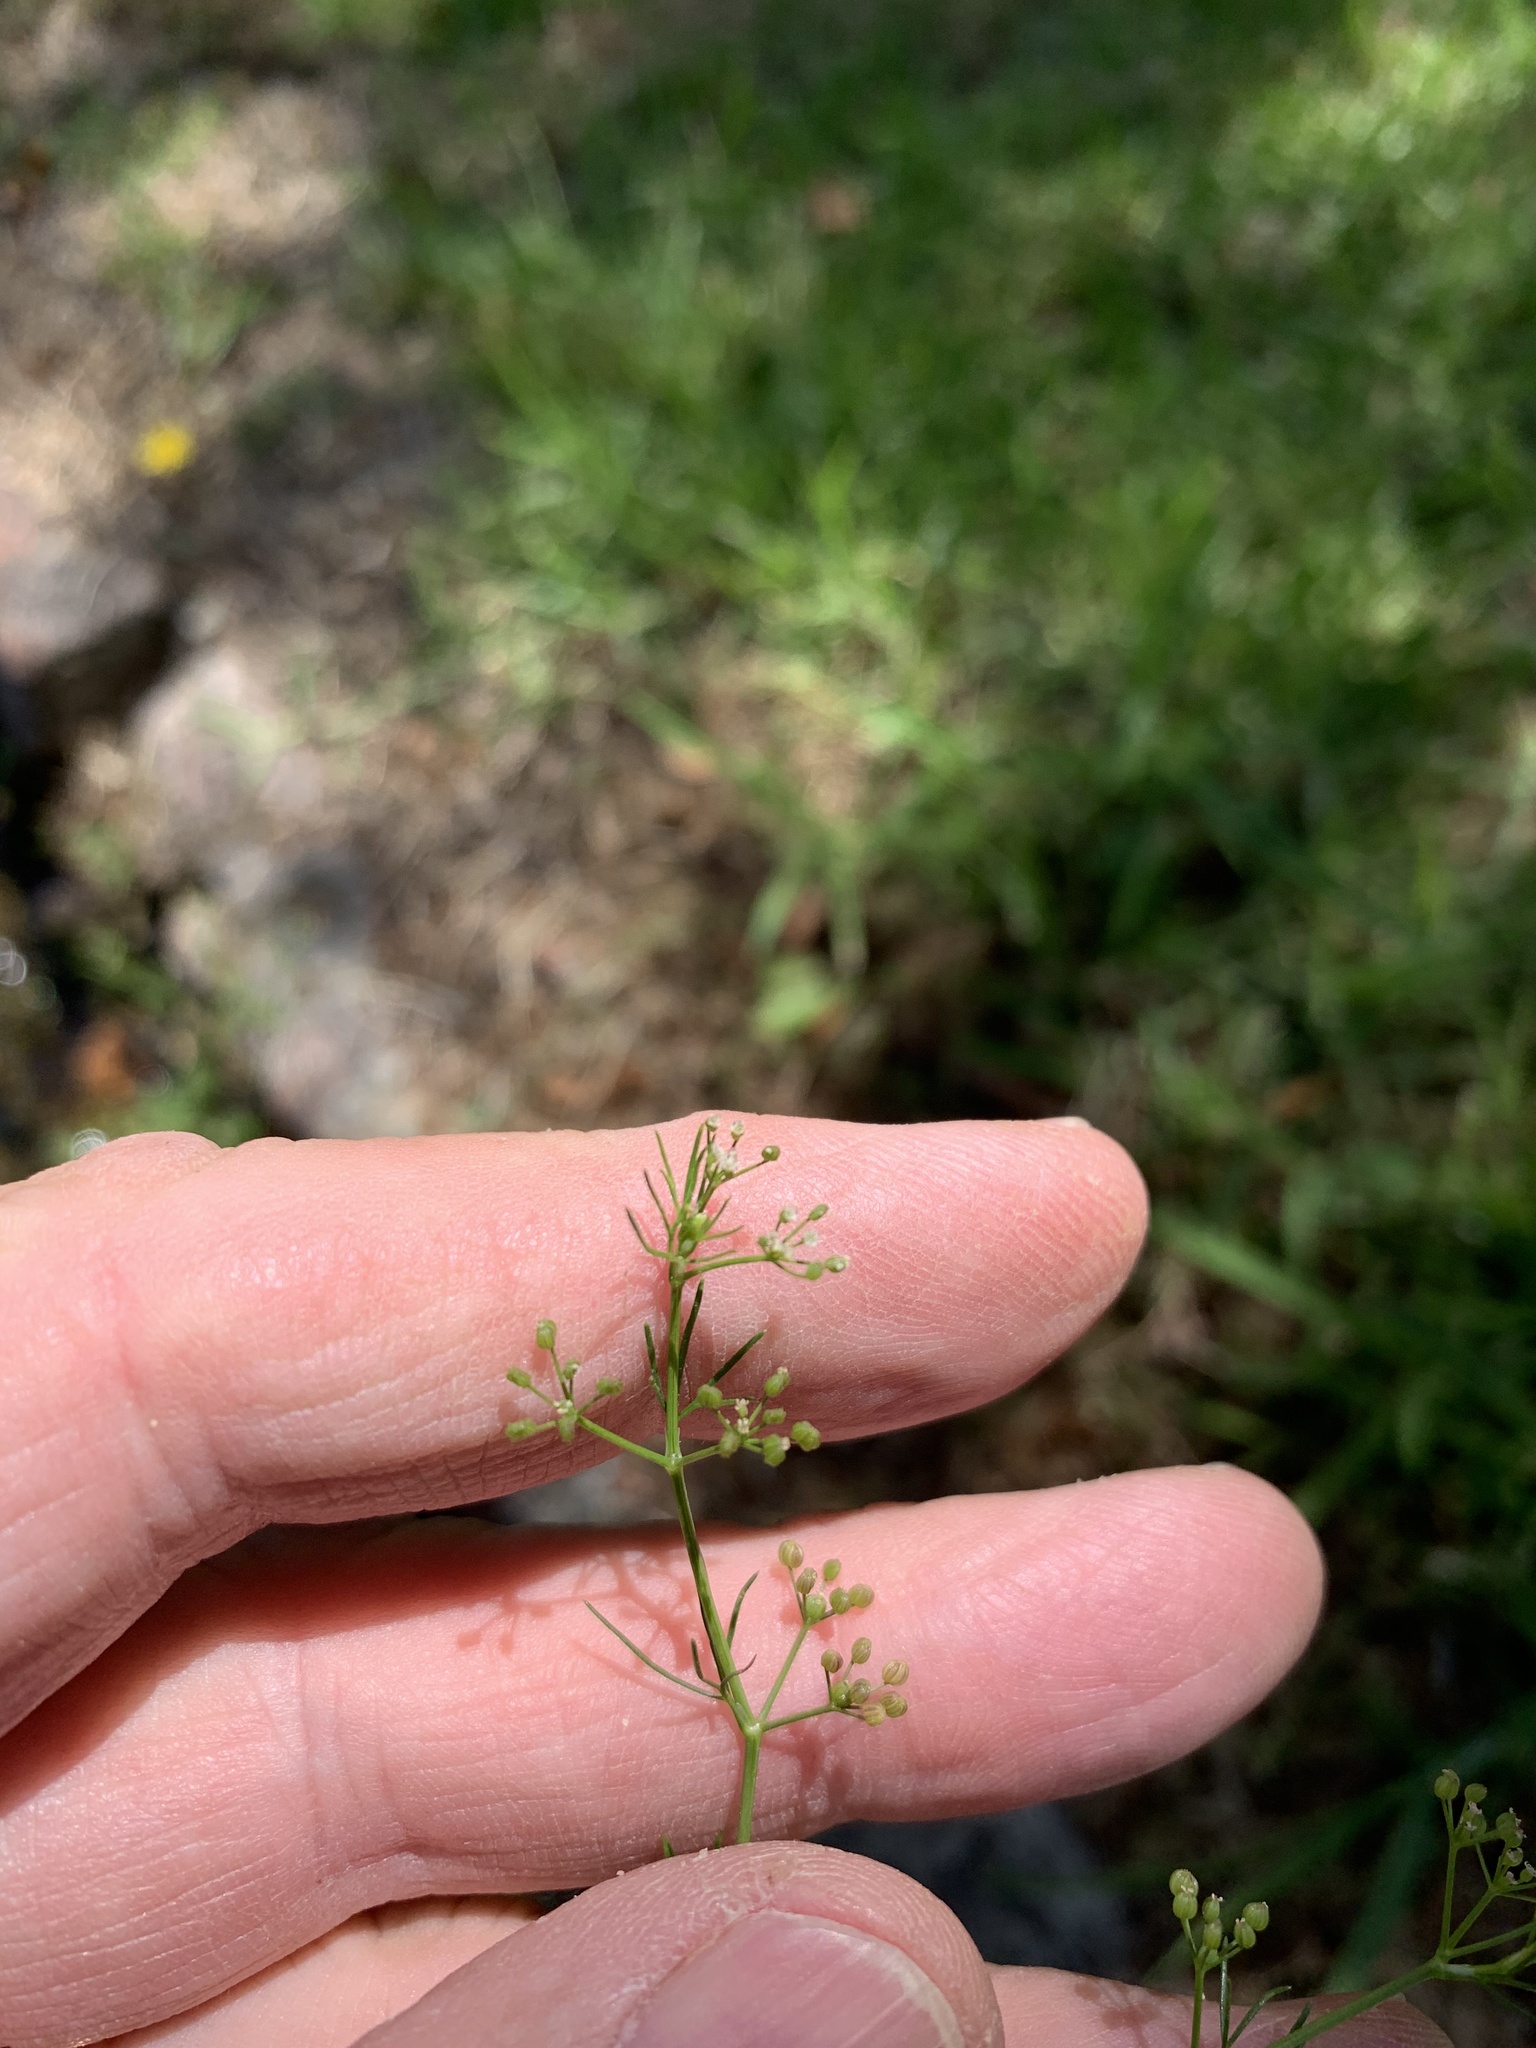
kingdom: Plantae
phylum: Tracheophyta
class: Magnoliopsida
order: Apiales
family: Apiaceae
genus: Cyclospermum
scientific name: Cyclospermum leptophyllum
